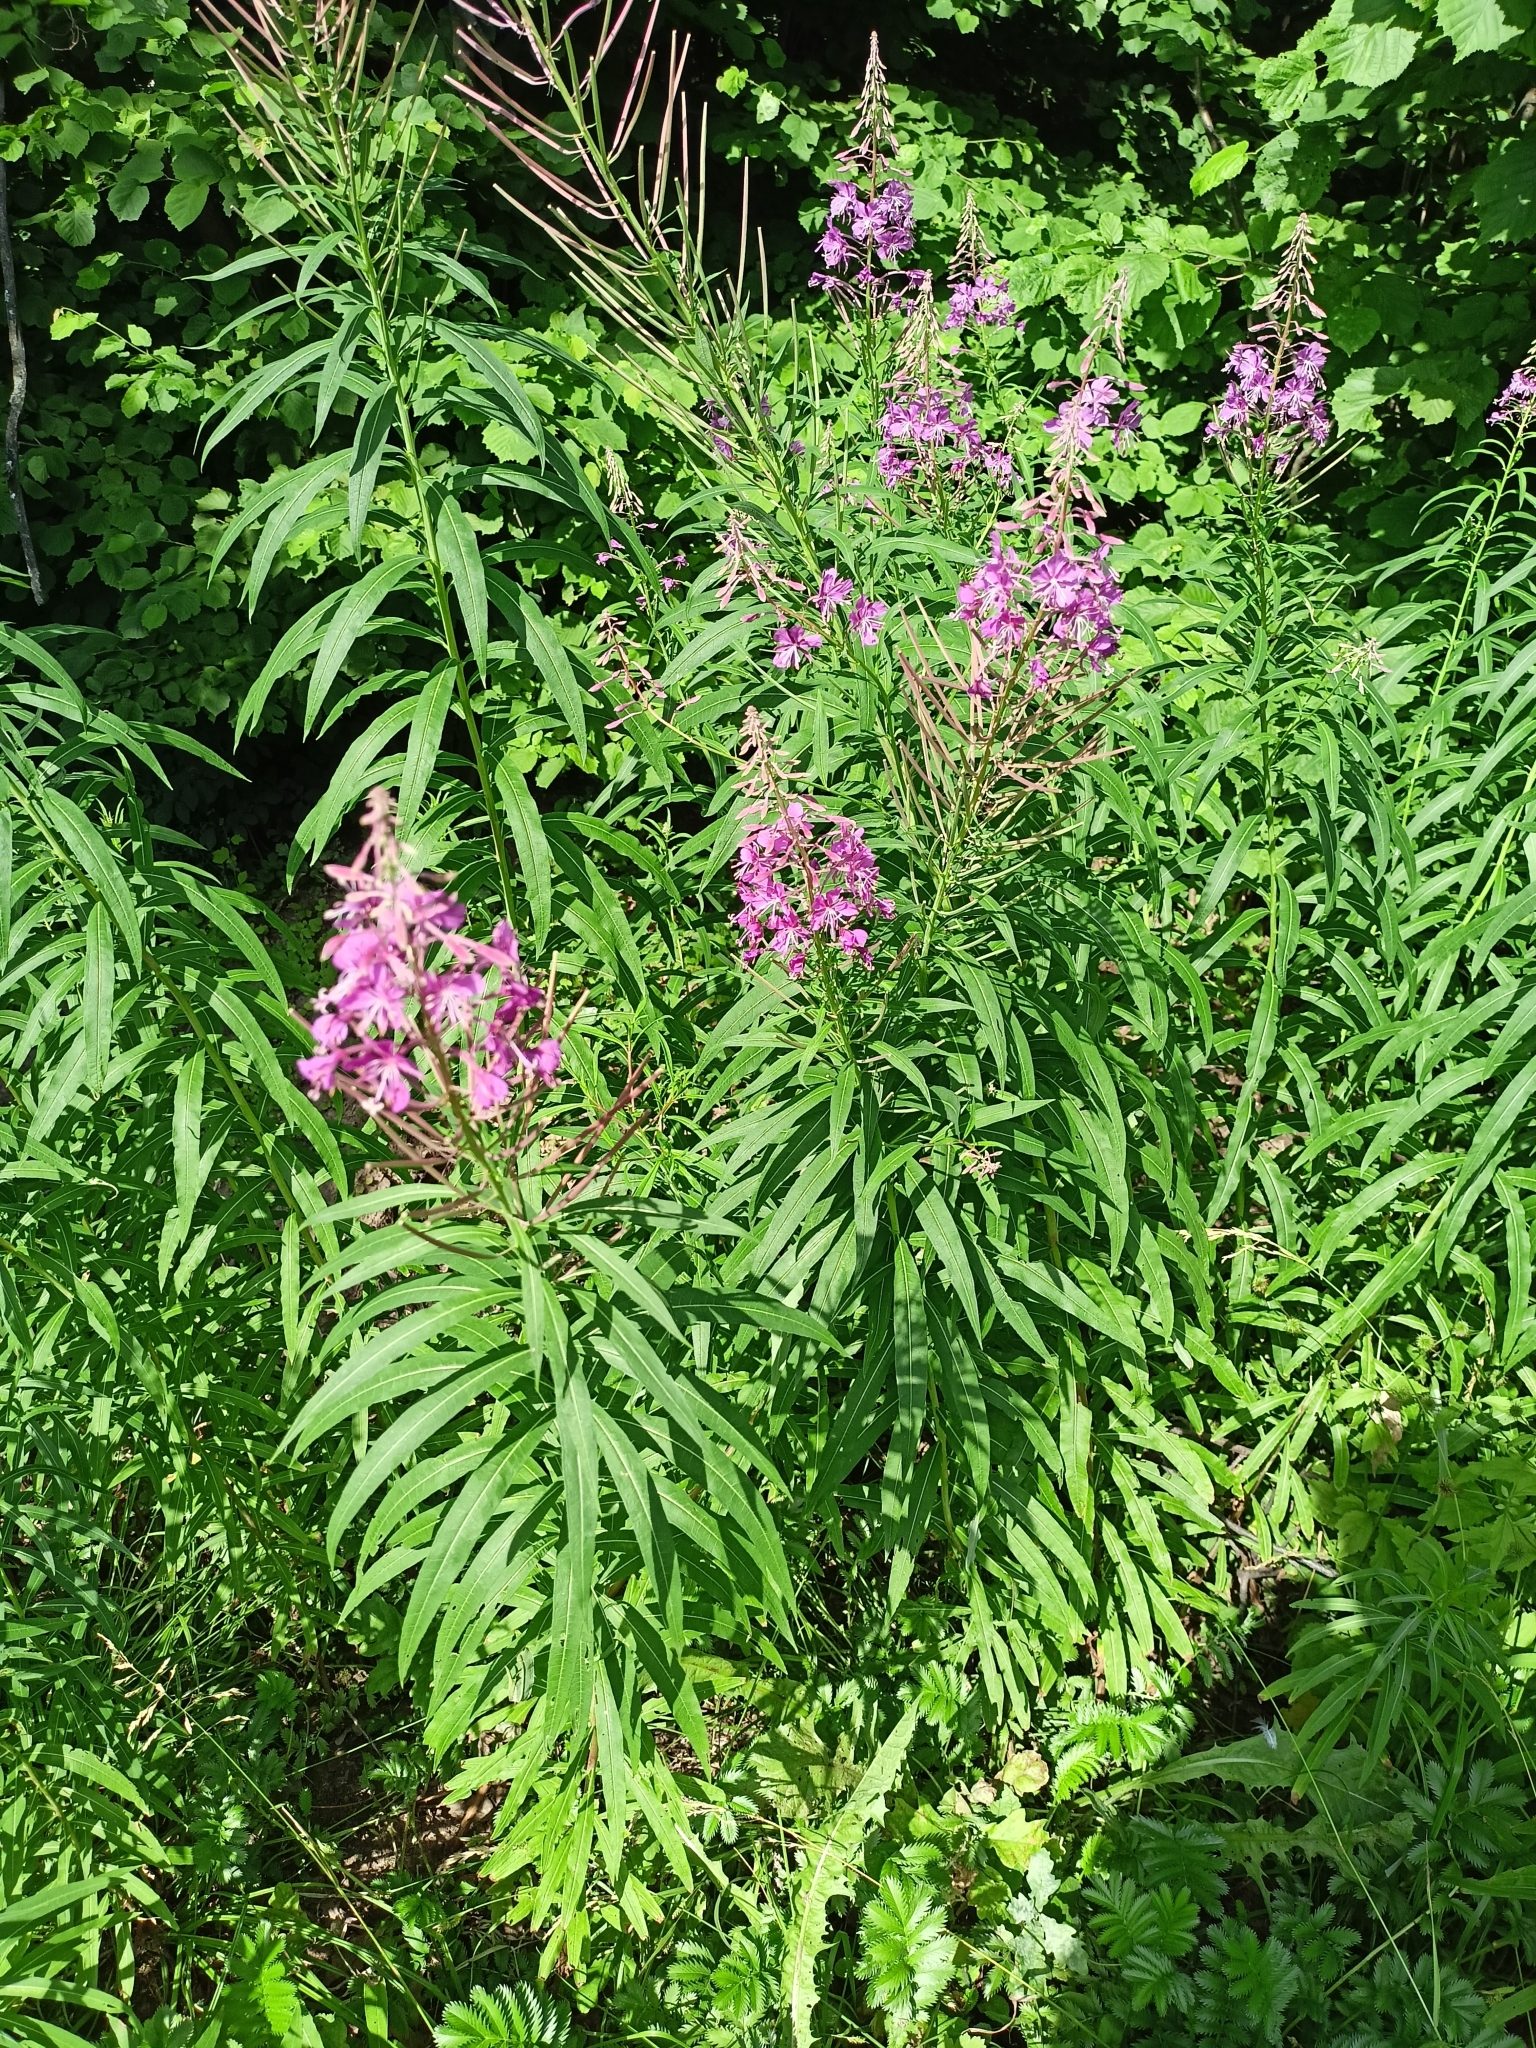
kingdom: Plantae
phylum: Tracheophyta
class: Magnoliopsida
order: Myrtales
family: Onagraceae
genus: Chamaenerion
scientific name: Chamaenerion angustifolium
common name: Fireweed
